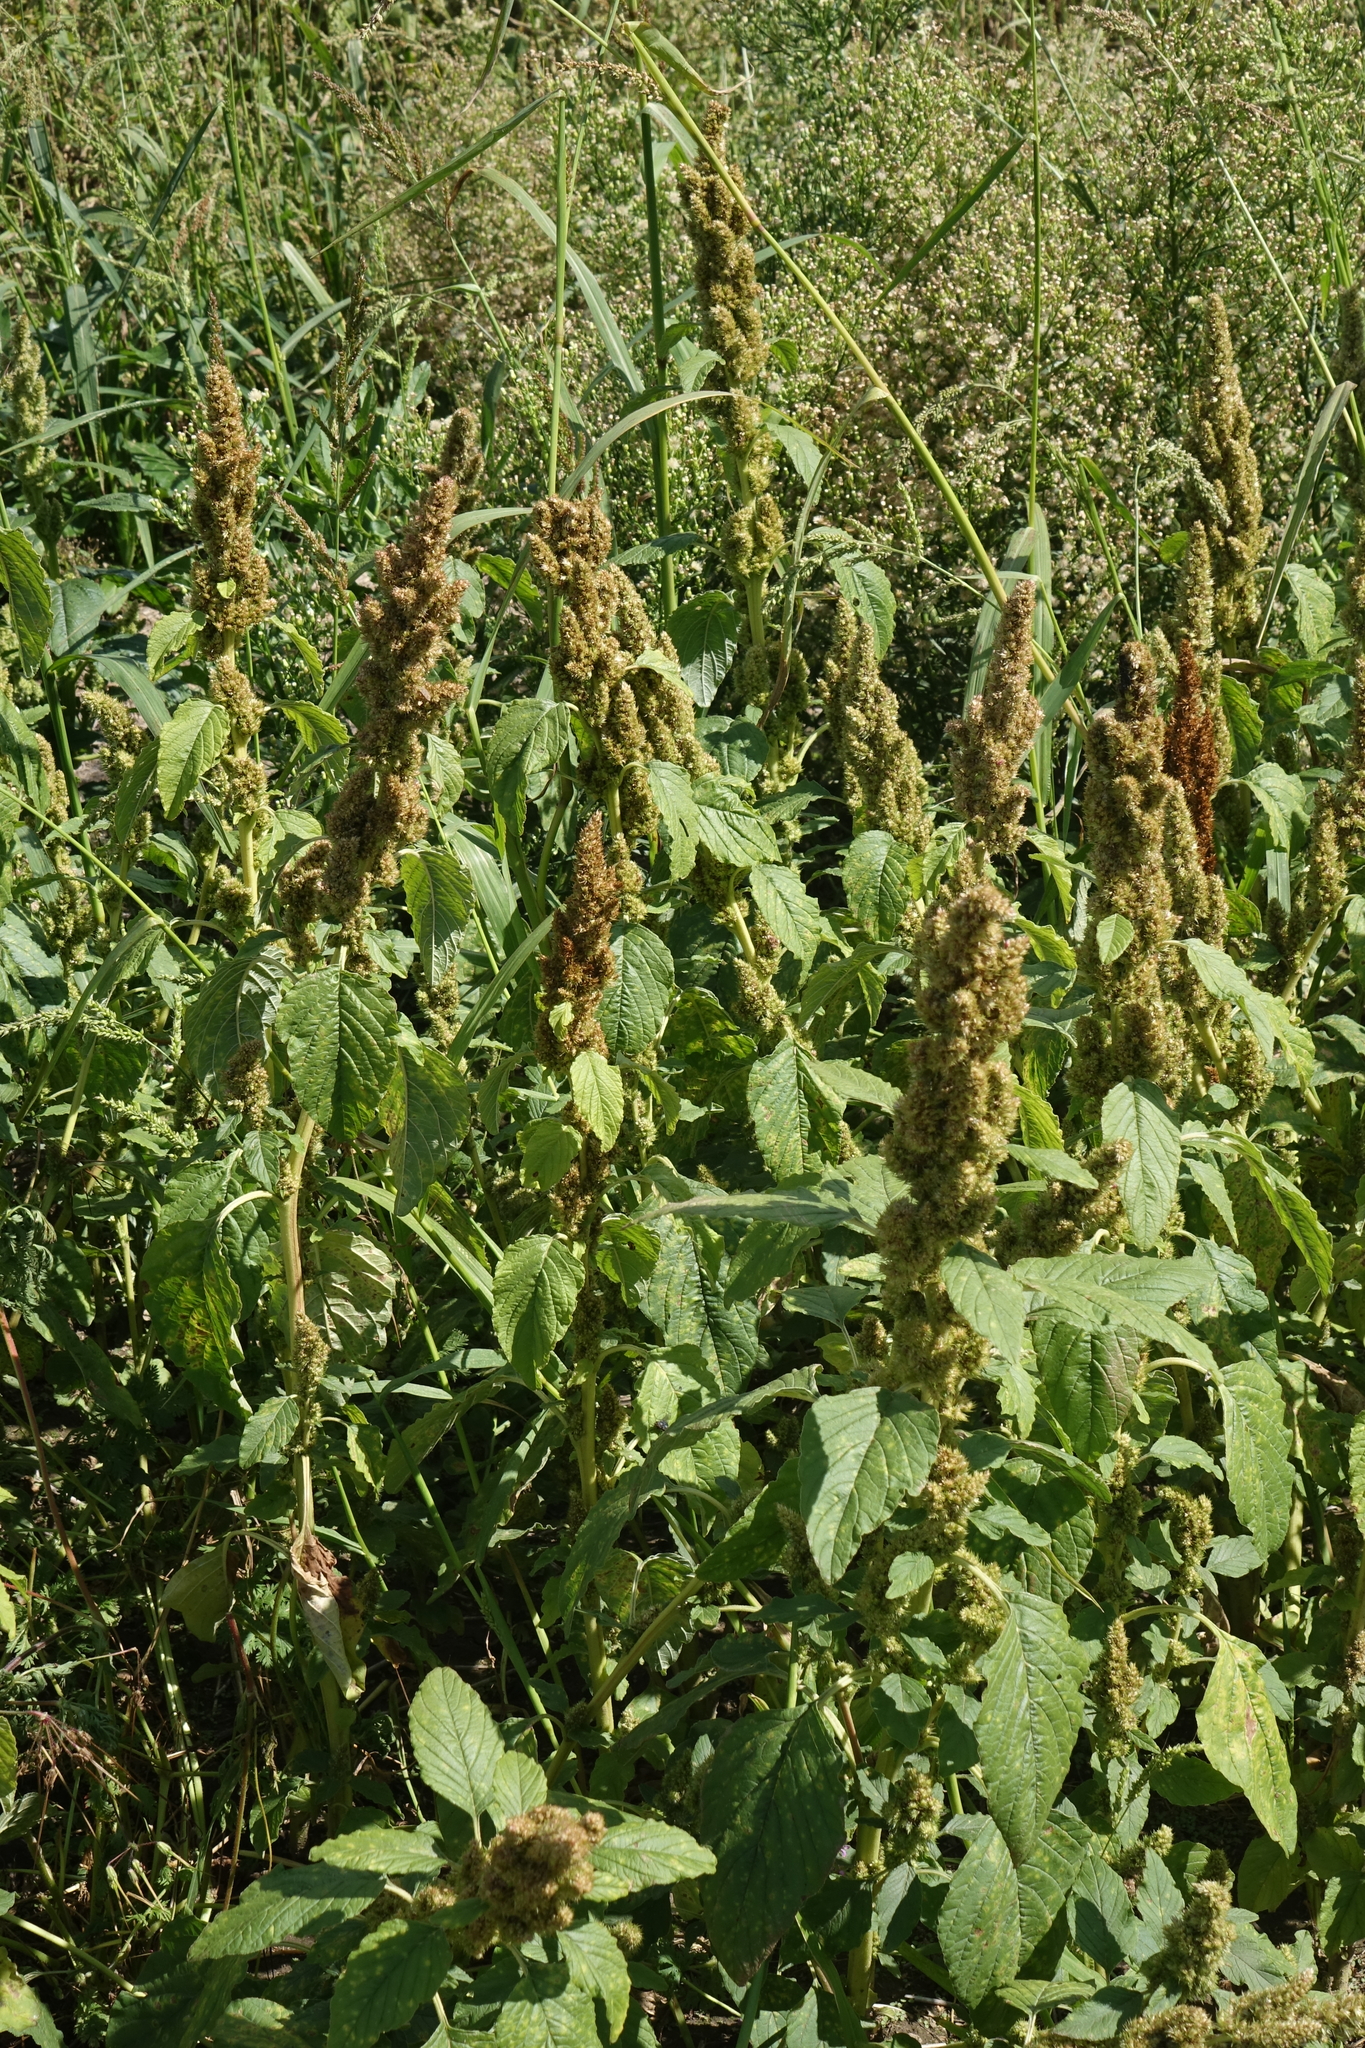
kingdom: Plantae
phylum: Tracheophyta
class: Magnoliopsida
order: Caryophyllales
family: Amaranthaceae
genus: Amaranthus
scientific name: Amaranthus retroflexus
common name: Redroot amaranth
